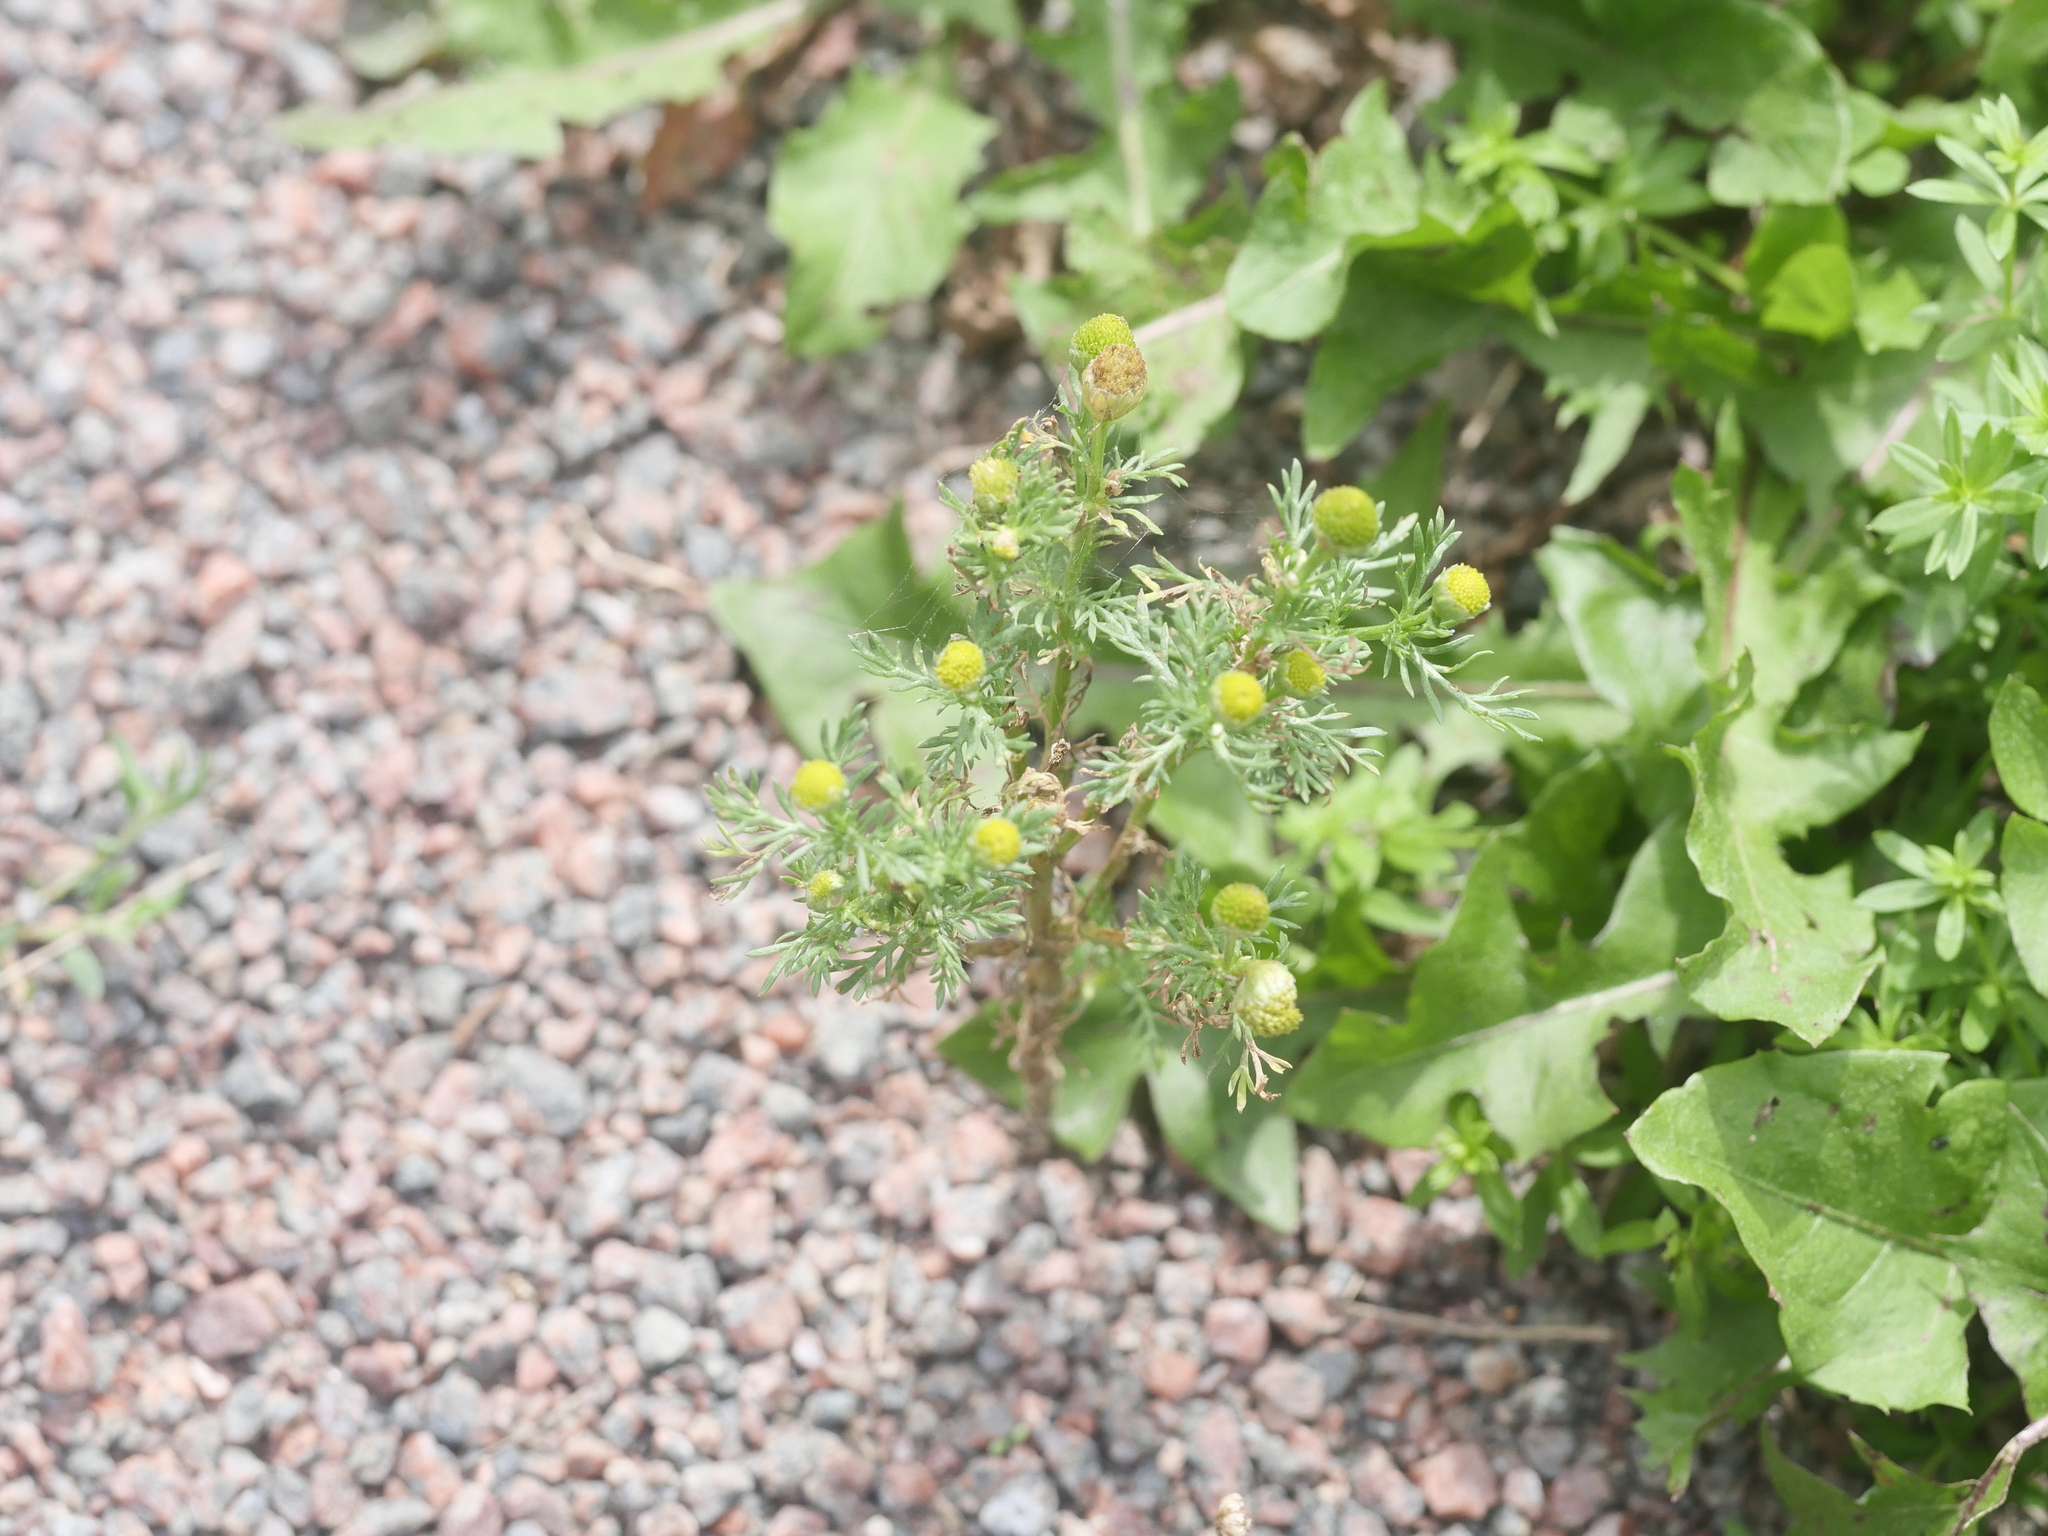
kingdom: Plantae
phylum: Tracheophyta
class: Magnoliopsida
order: Asterales
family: Asteraceae
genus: Matricaria
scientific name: Matricaria discoidea
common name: Disc mayweed
